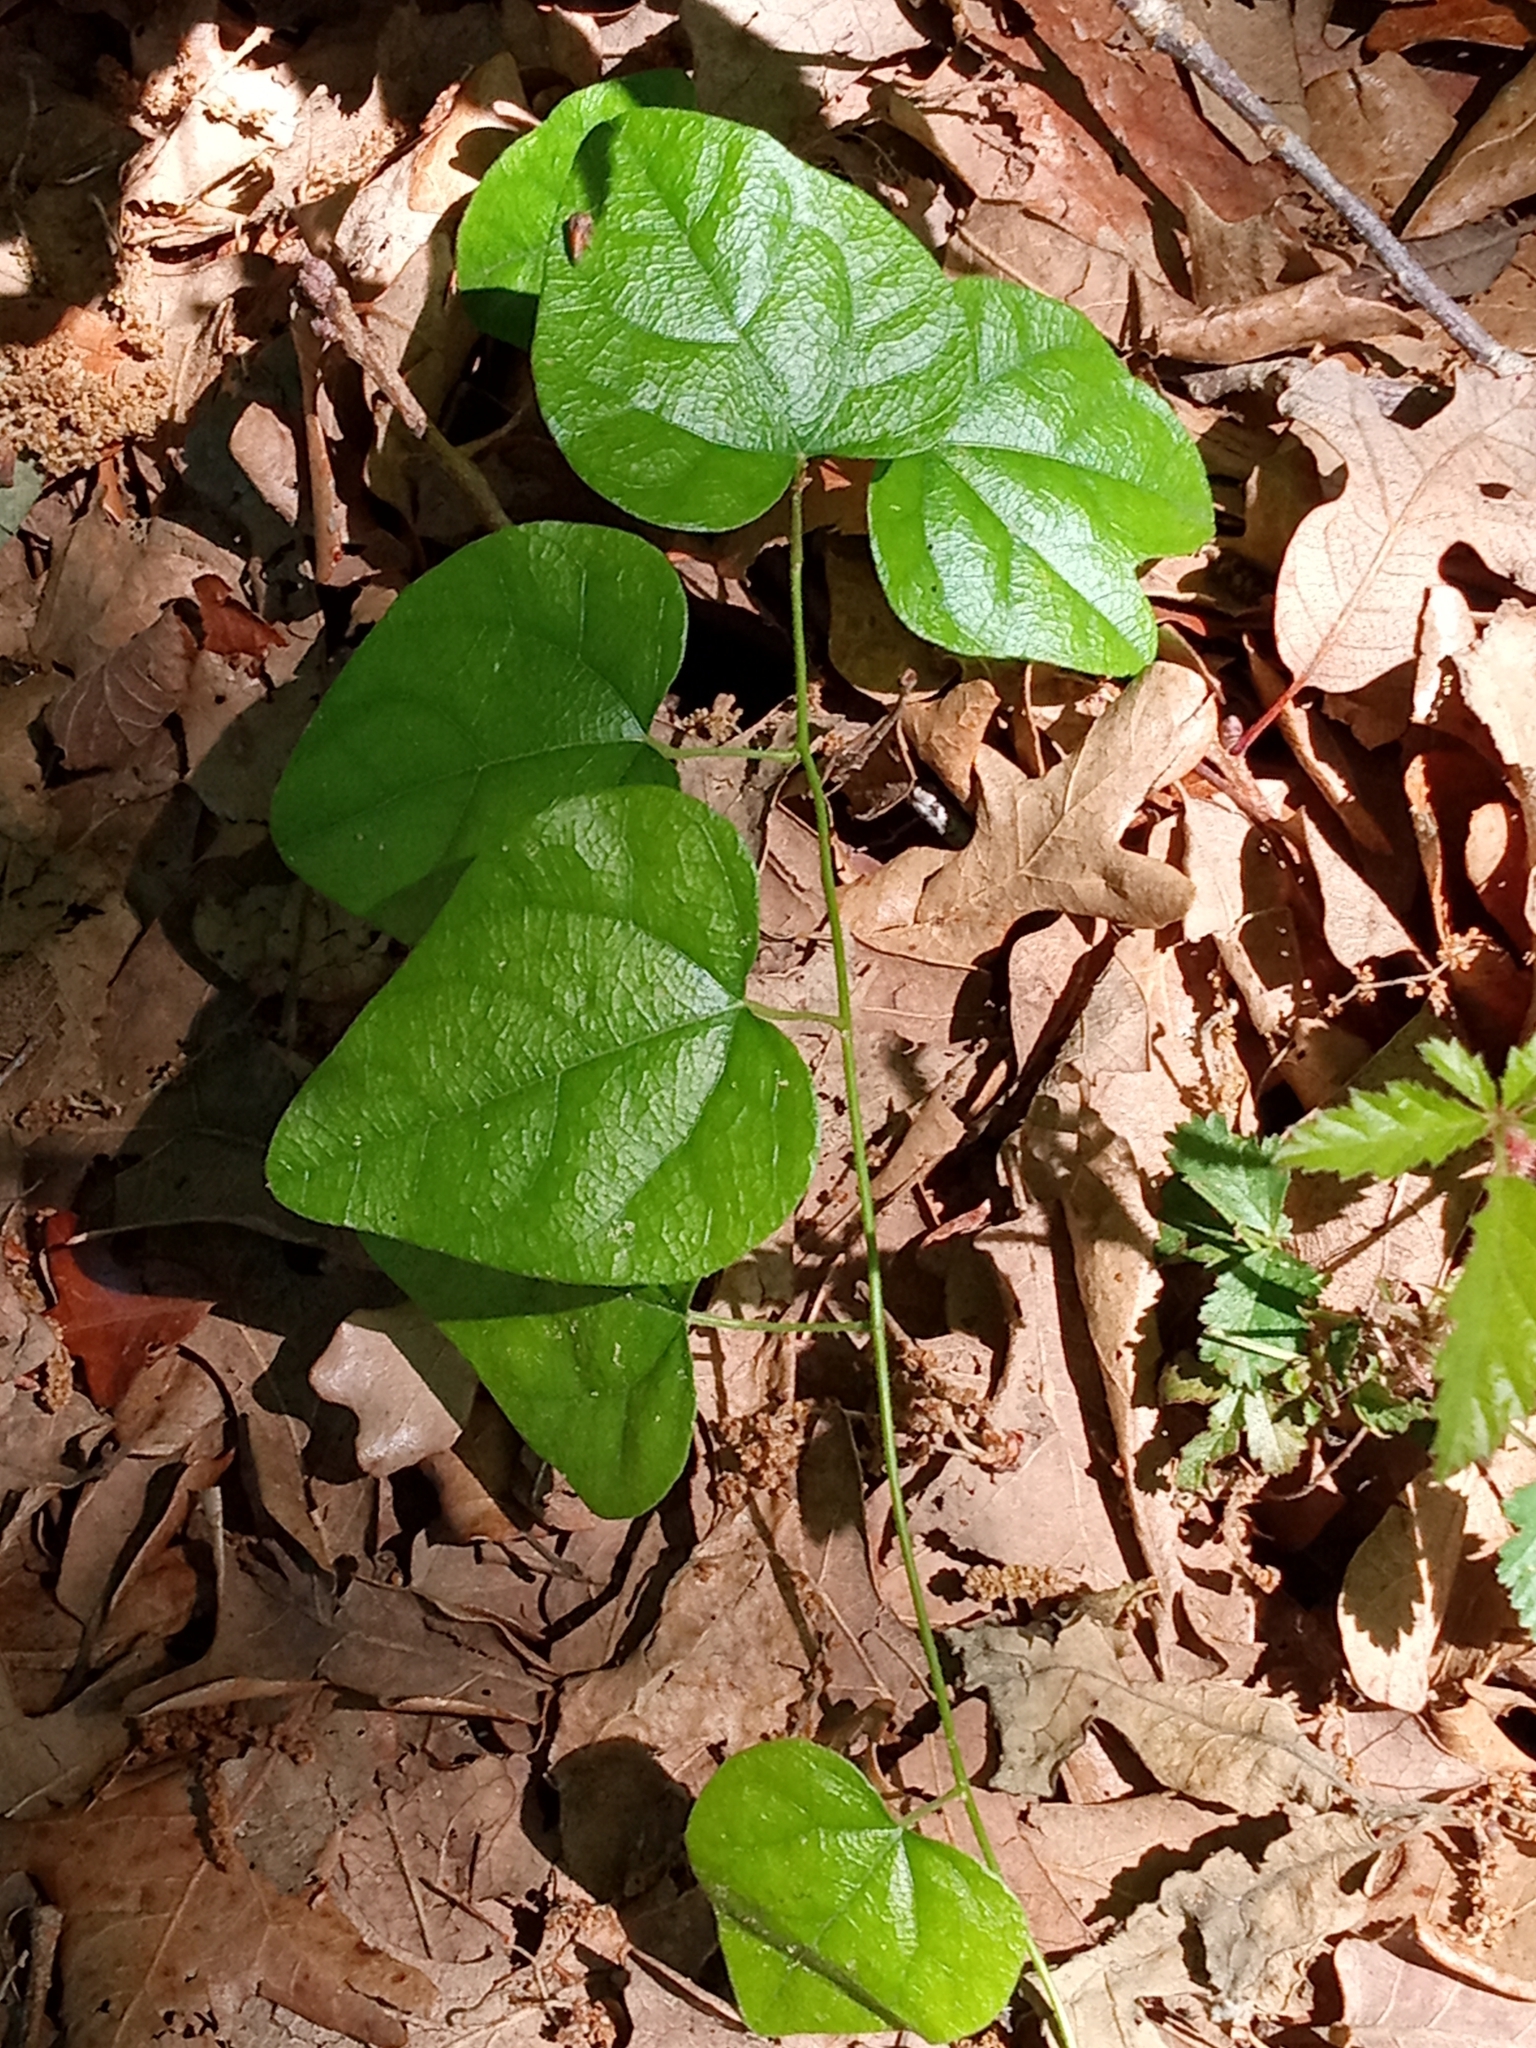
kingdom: Plantae
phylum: Tracheophyta
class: Magnoliopsida
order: Ranunculales
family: Menispermaceae
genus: Cocculus
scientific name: Cocculus carolinus
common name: Carolina moonseed
